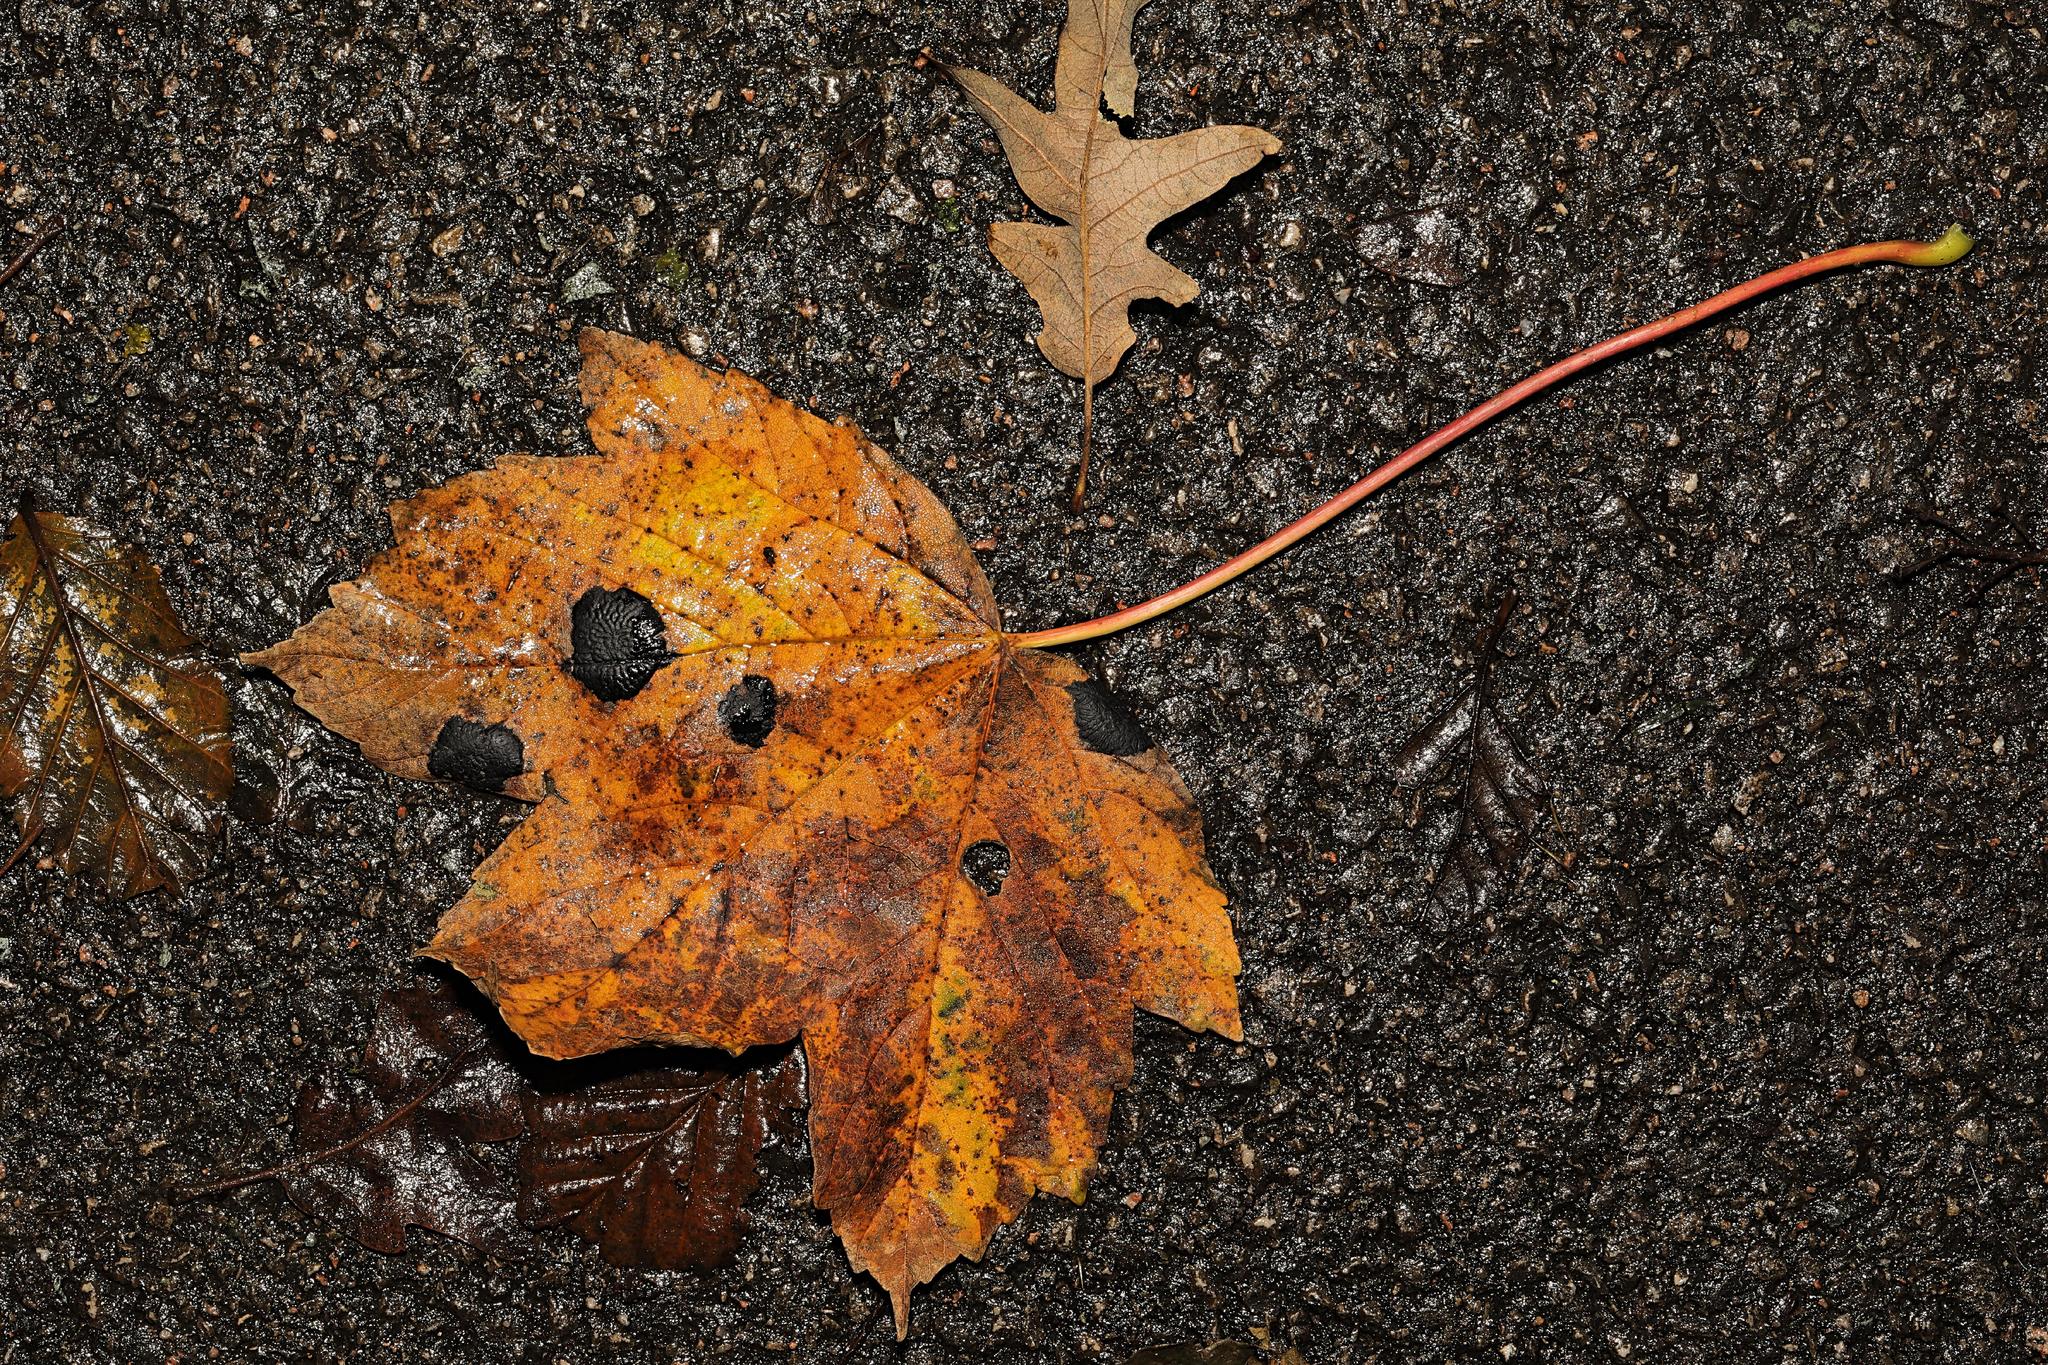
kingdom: Fungi
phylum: Ascomycota
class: Leotiomycetes
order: Rhytismatales
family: Rhytismataceae
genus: Rhytisma
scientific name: Rhytisma acerinum
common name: European tar spot
